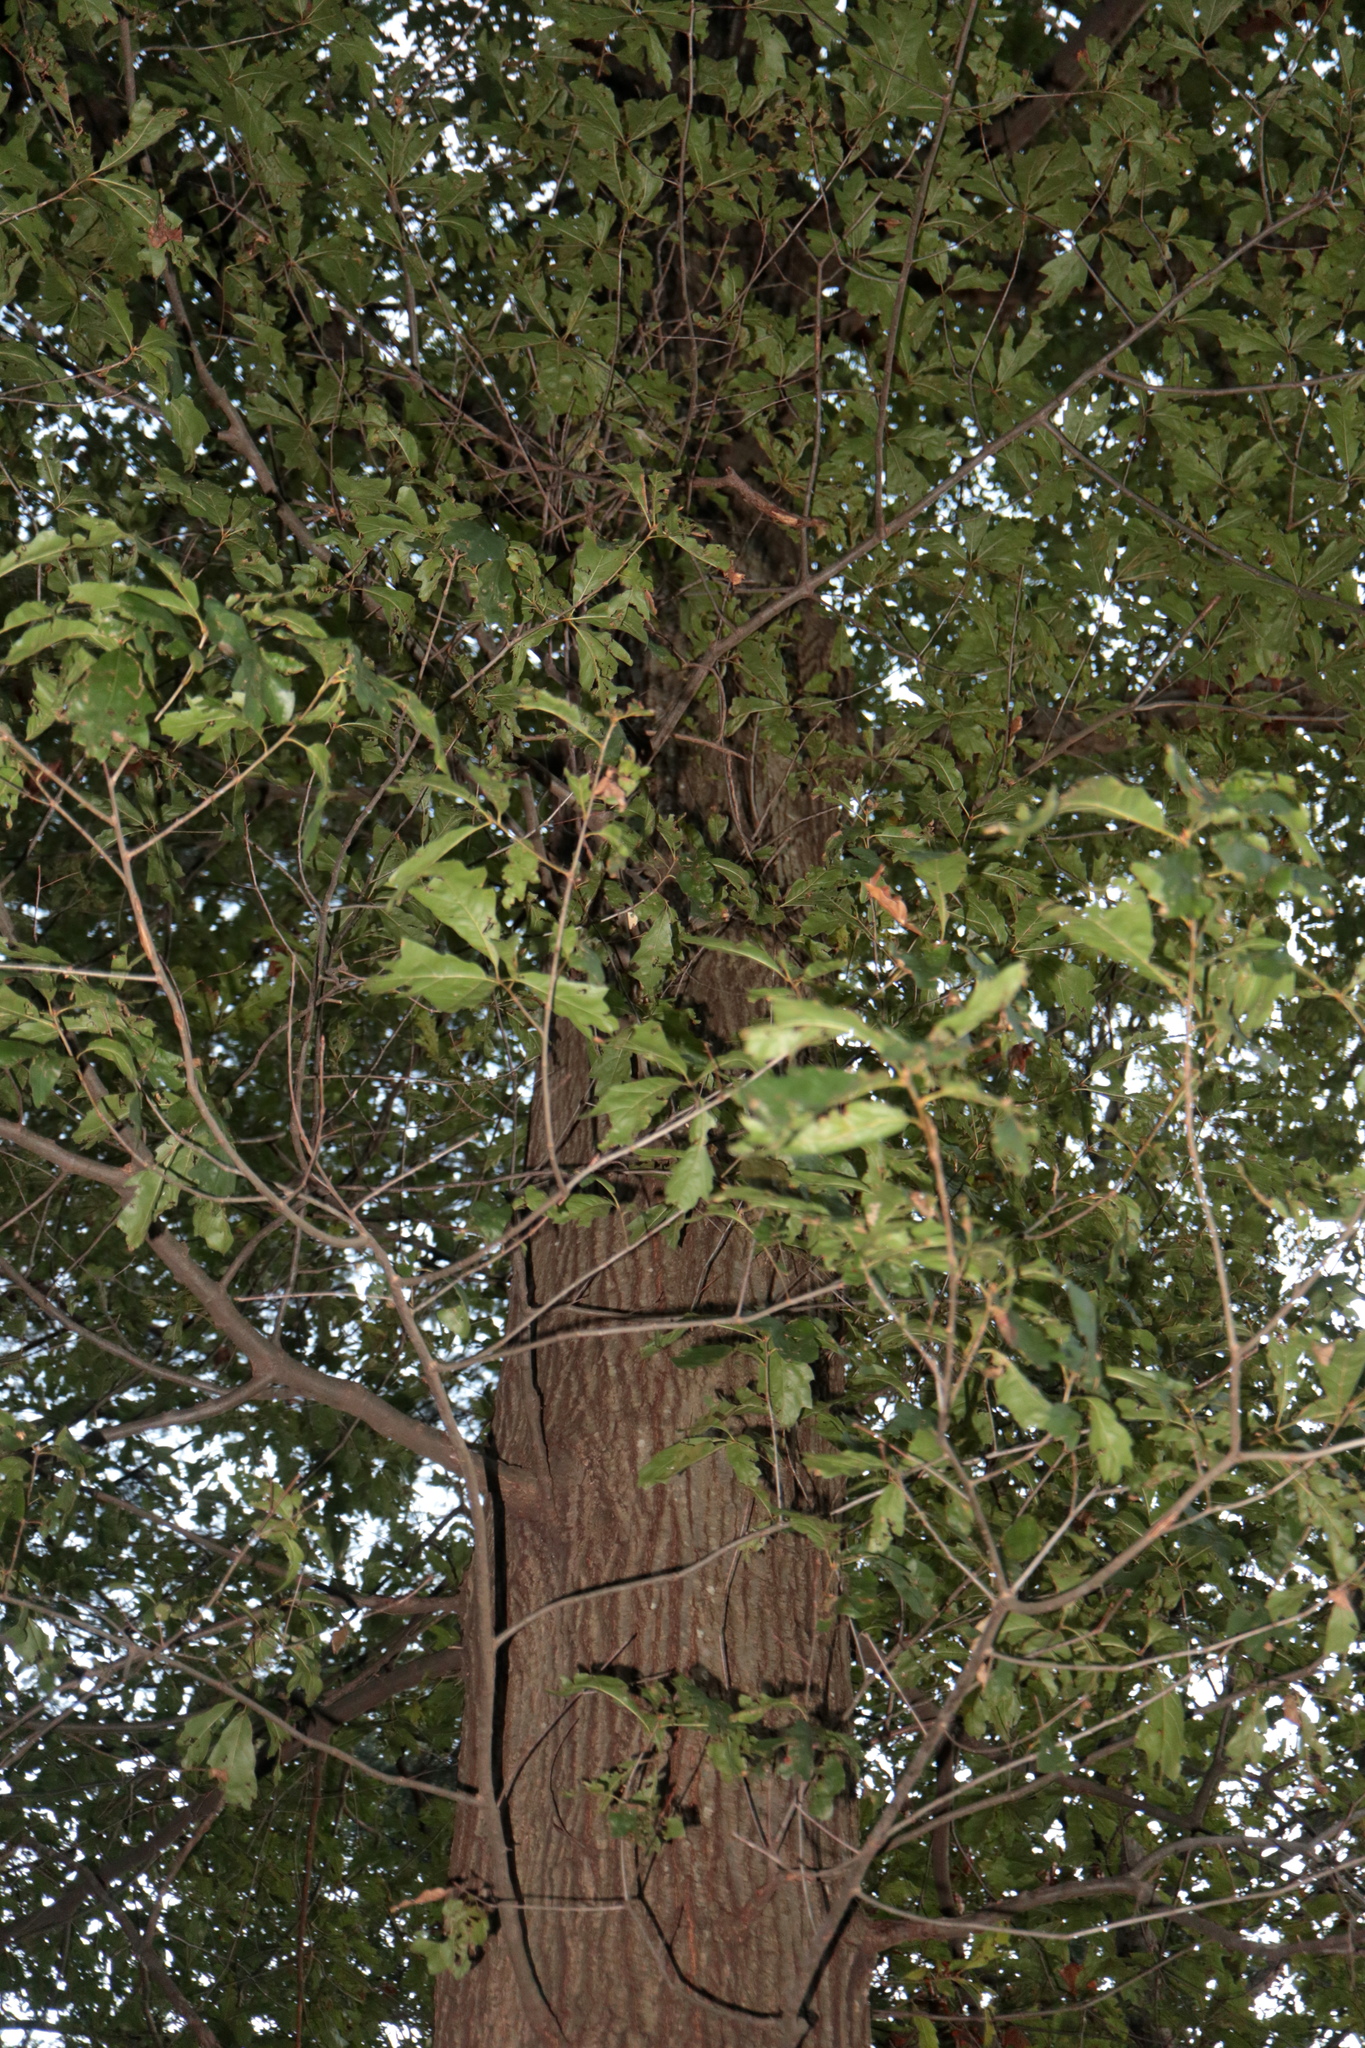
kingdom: Plantae
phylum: Tracheophyta
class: Magnoliopsida
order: Fagales
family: Fagaceae
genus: Quercus
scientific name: Quercus heterophylla
